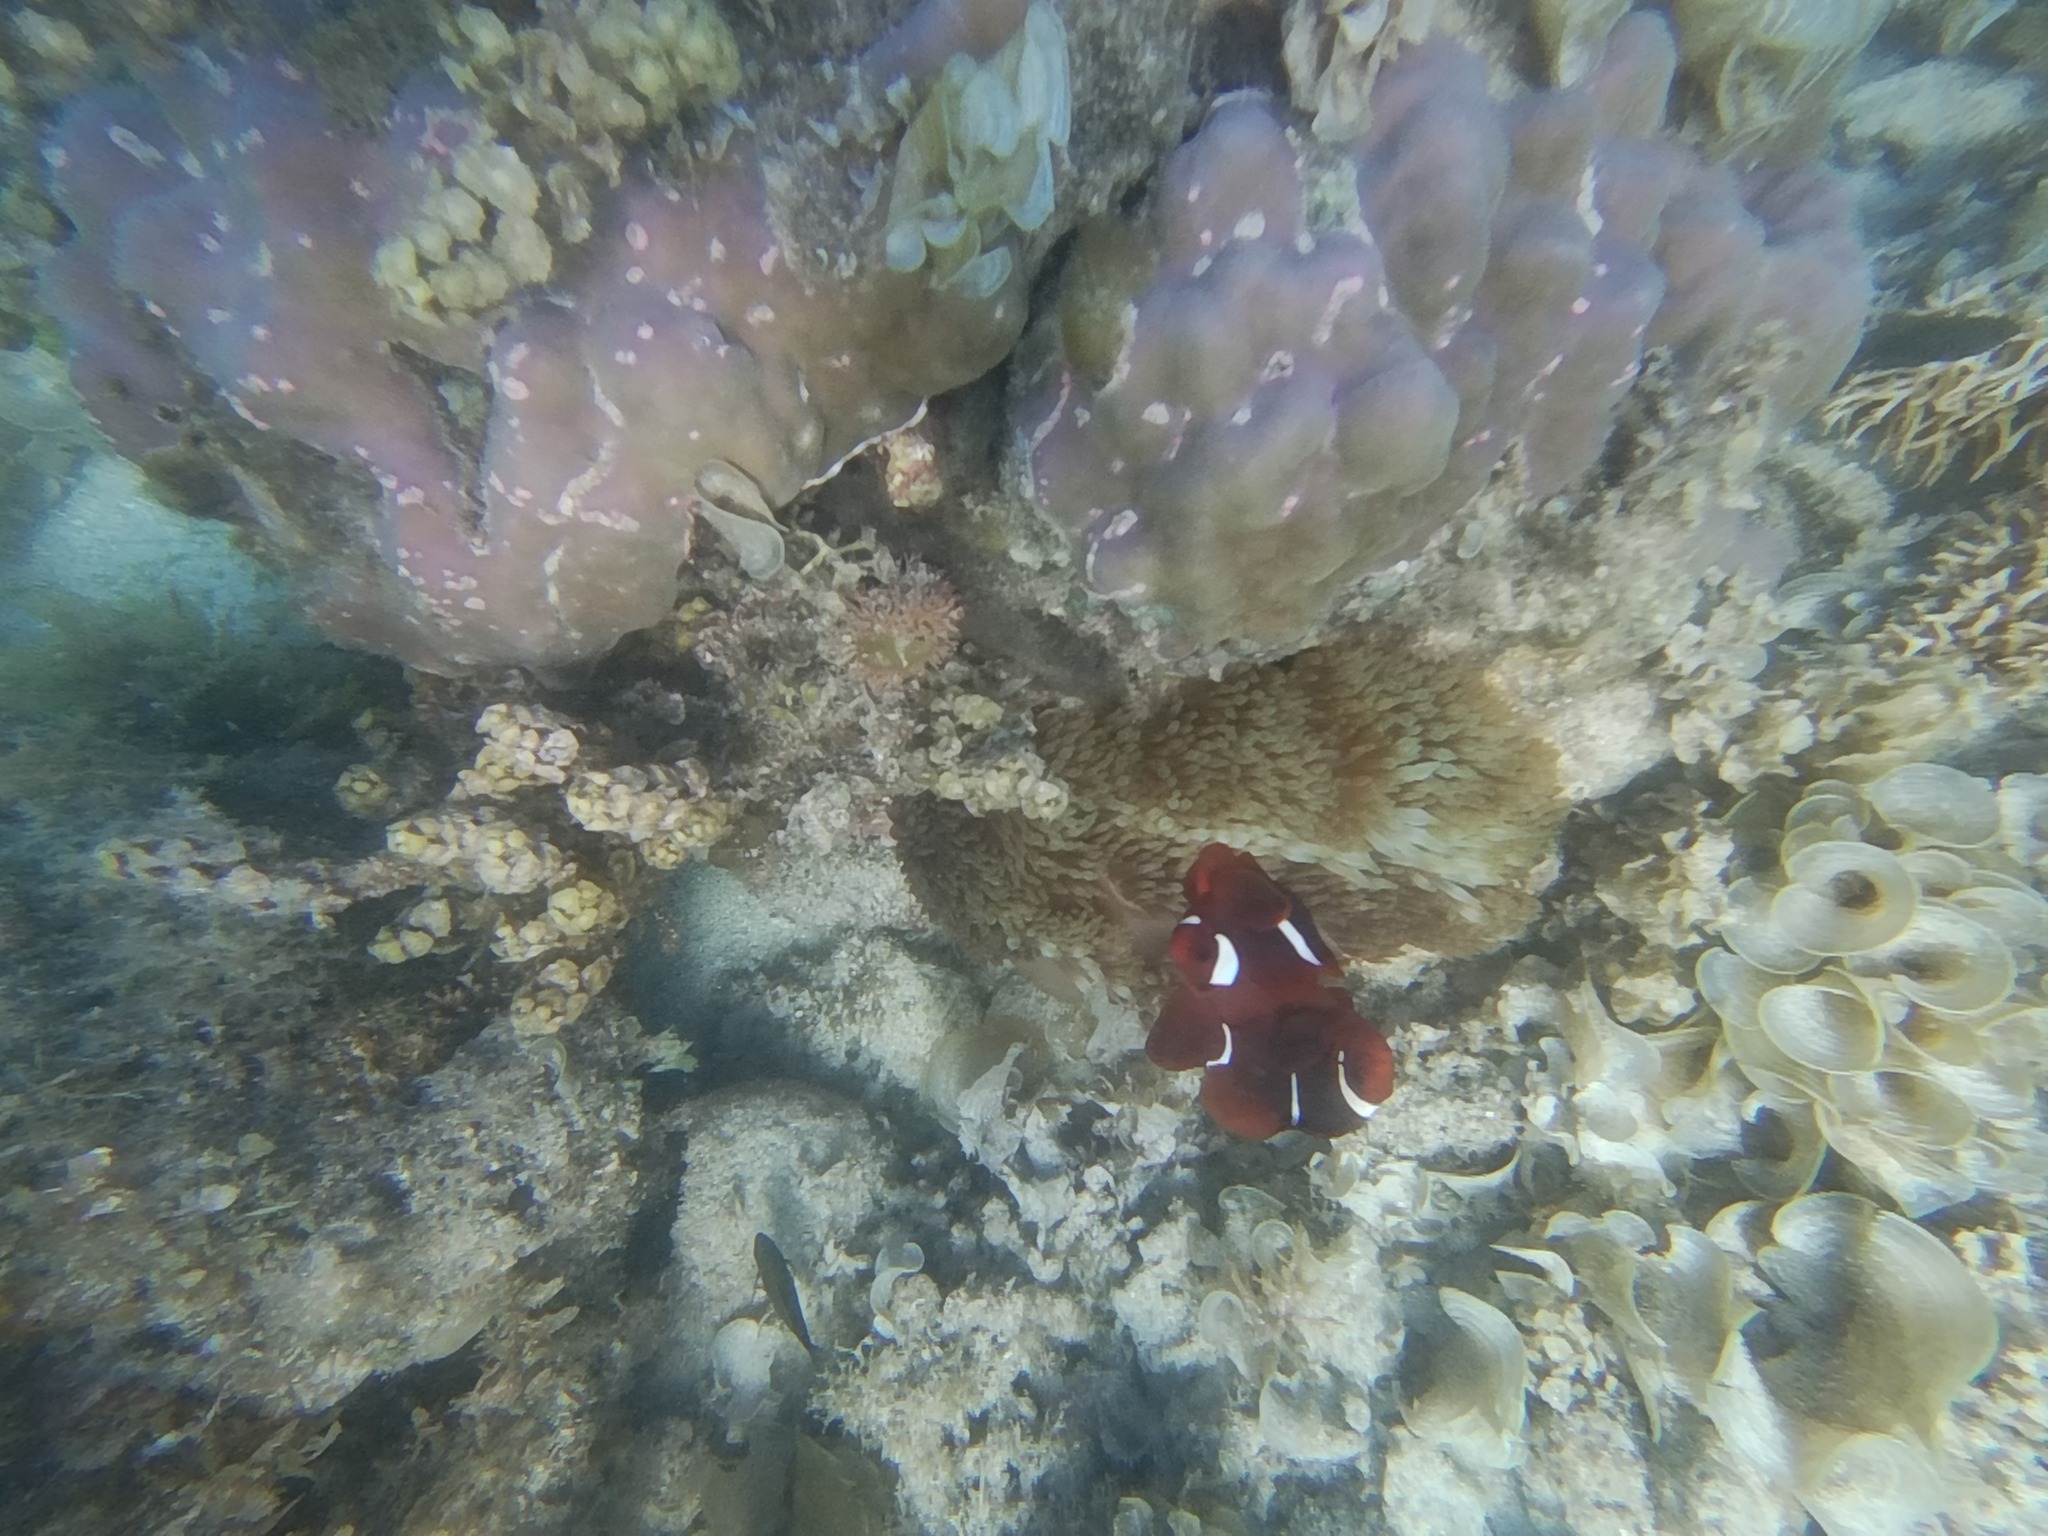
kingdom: Animalia
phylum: Chordata
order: Perciformes
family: Pomacentridae
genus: Premnas
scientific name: Premnas biaculeatus
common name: Spinecheek anemonefish
